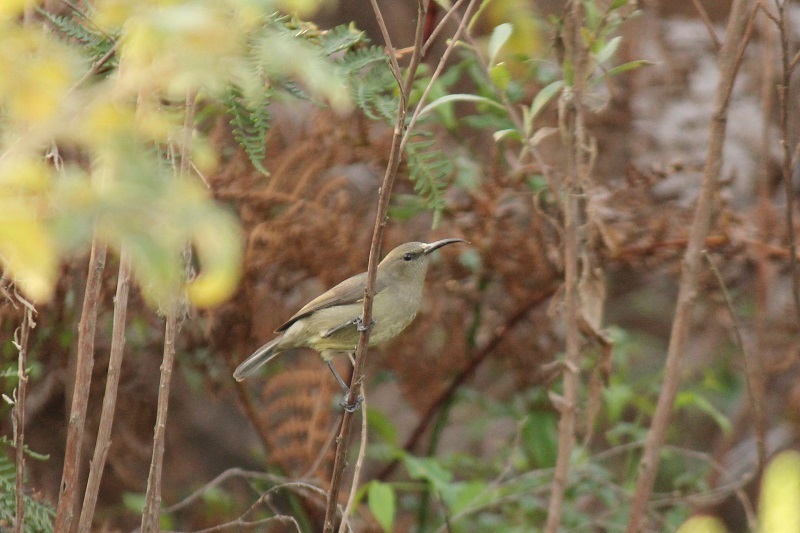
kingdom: Animalia
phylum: Chordata
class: Aves
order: Passeriformes
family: Nectariniidae
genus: Cinnyris
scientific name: Cinnyris chalybeus
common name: Southern double-collared sunbird
